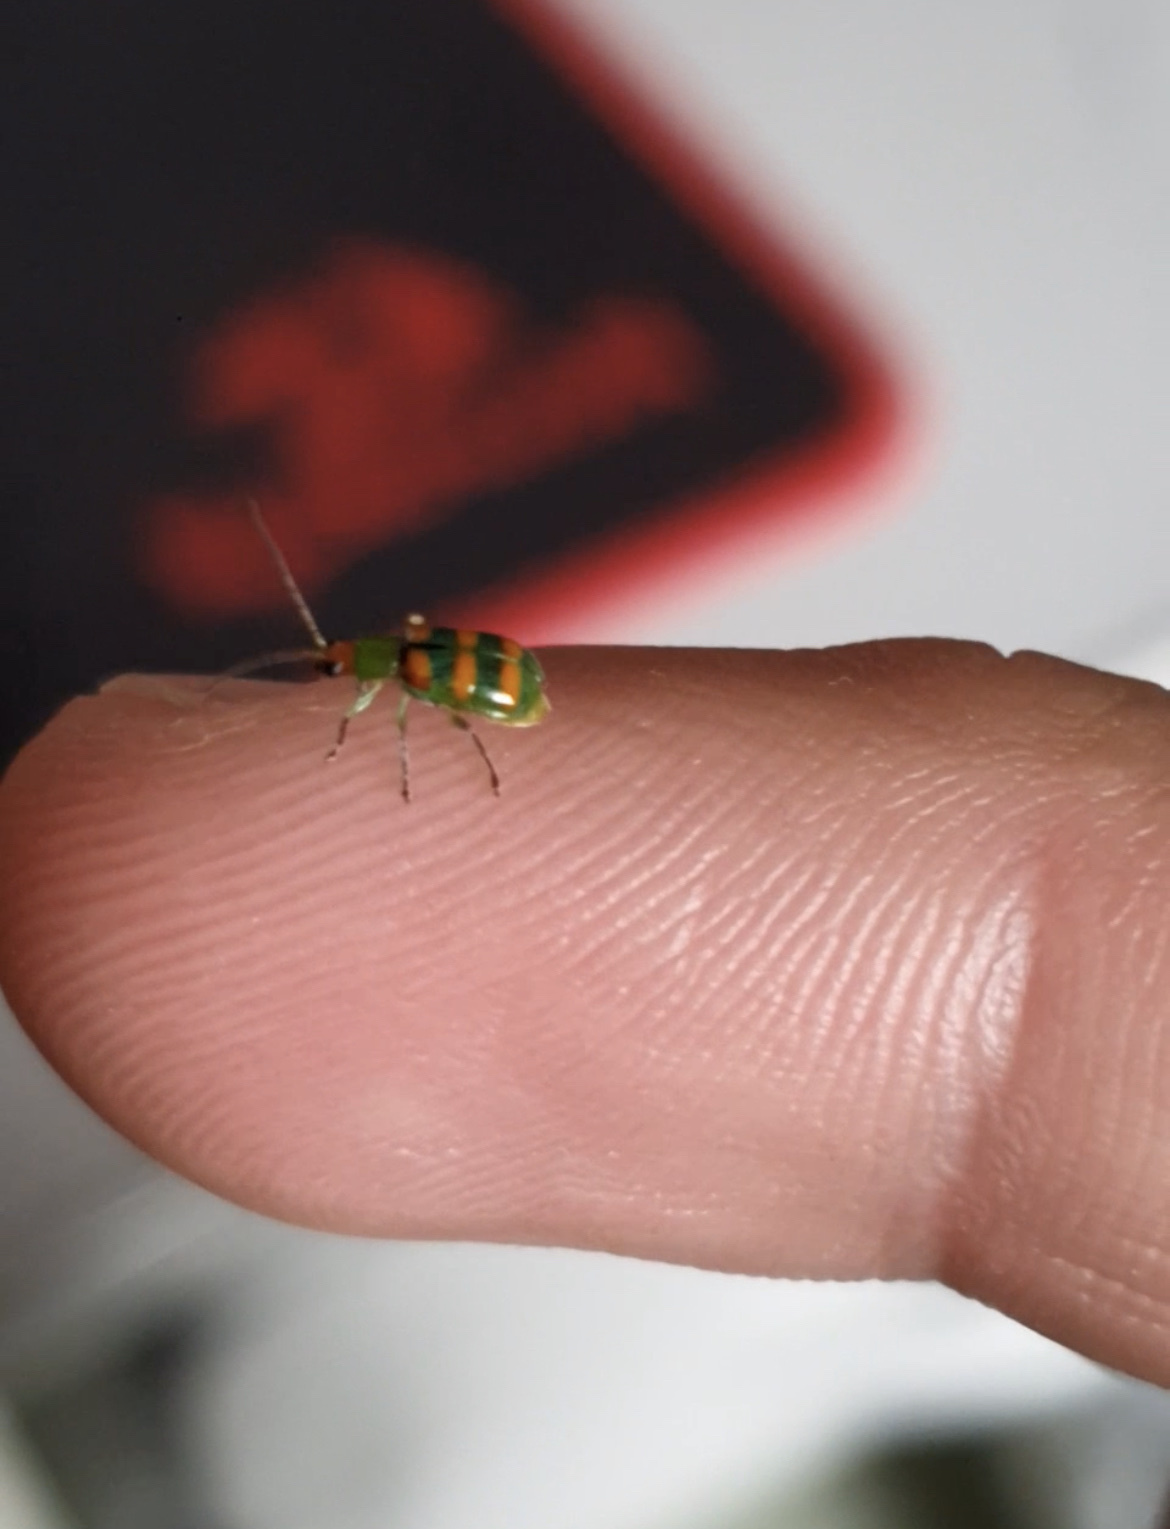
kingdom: Animalia
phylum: Arthropoda
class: Insecta
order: Coleoptera
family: Chrysomelidae
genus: Diabrotica
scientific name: Diabrotica speciosa
